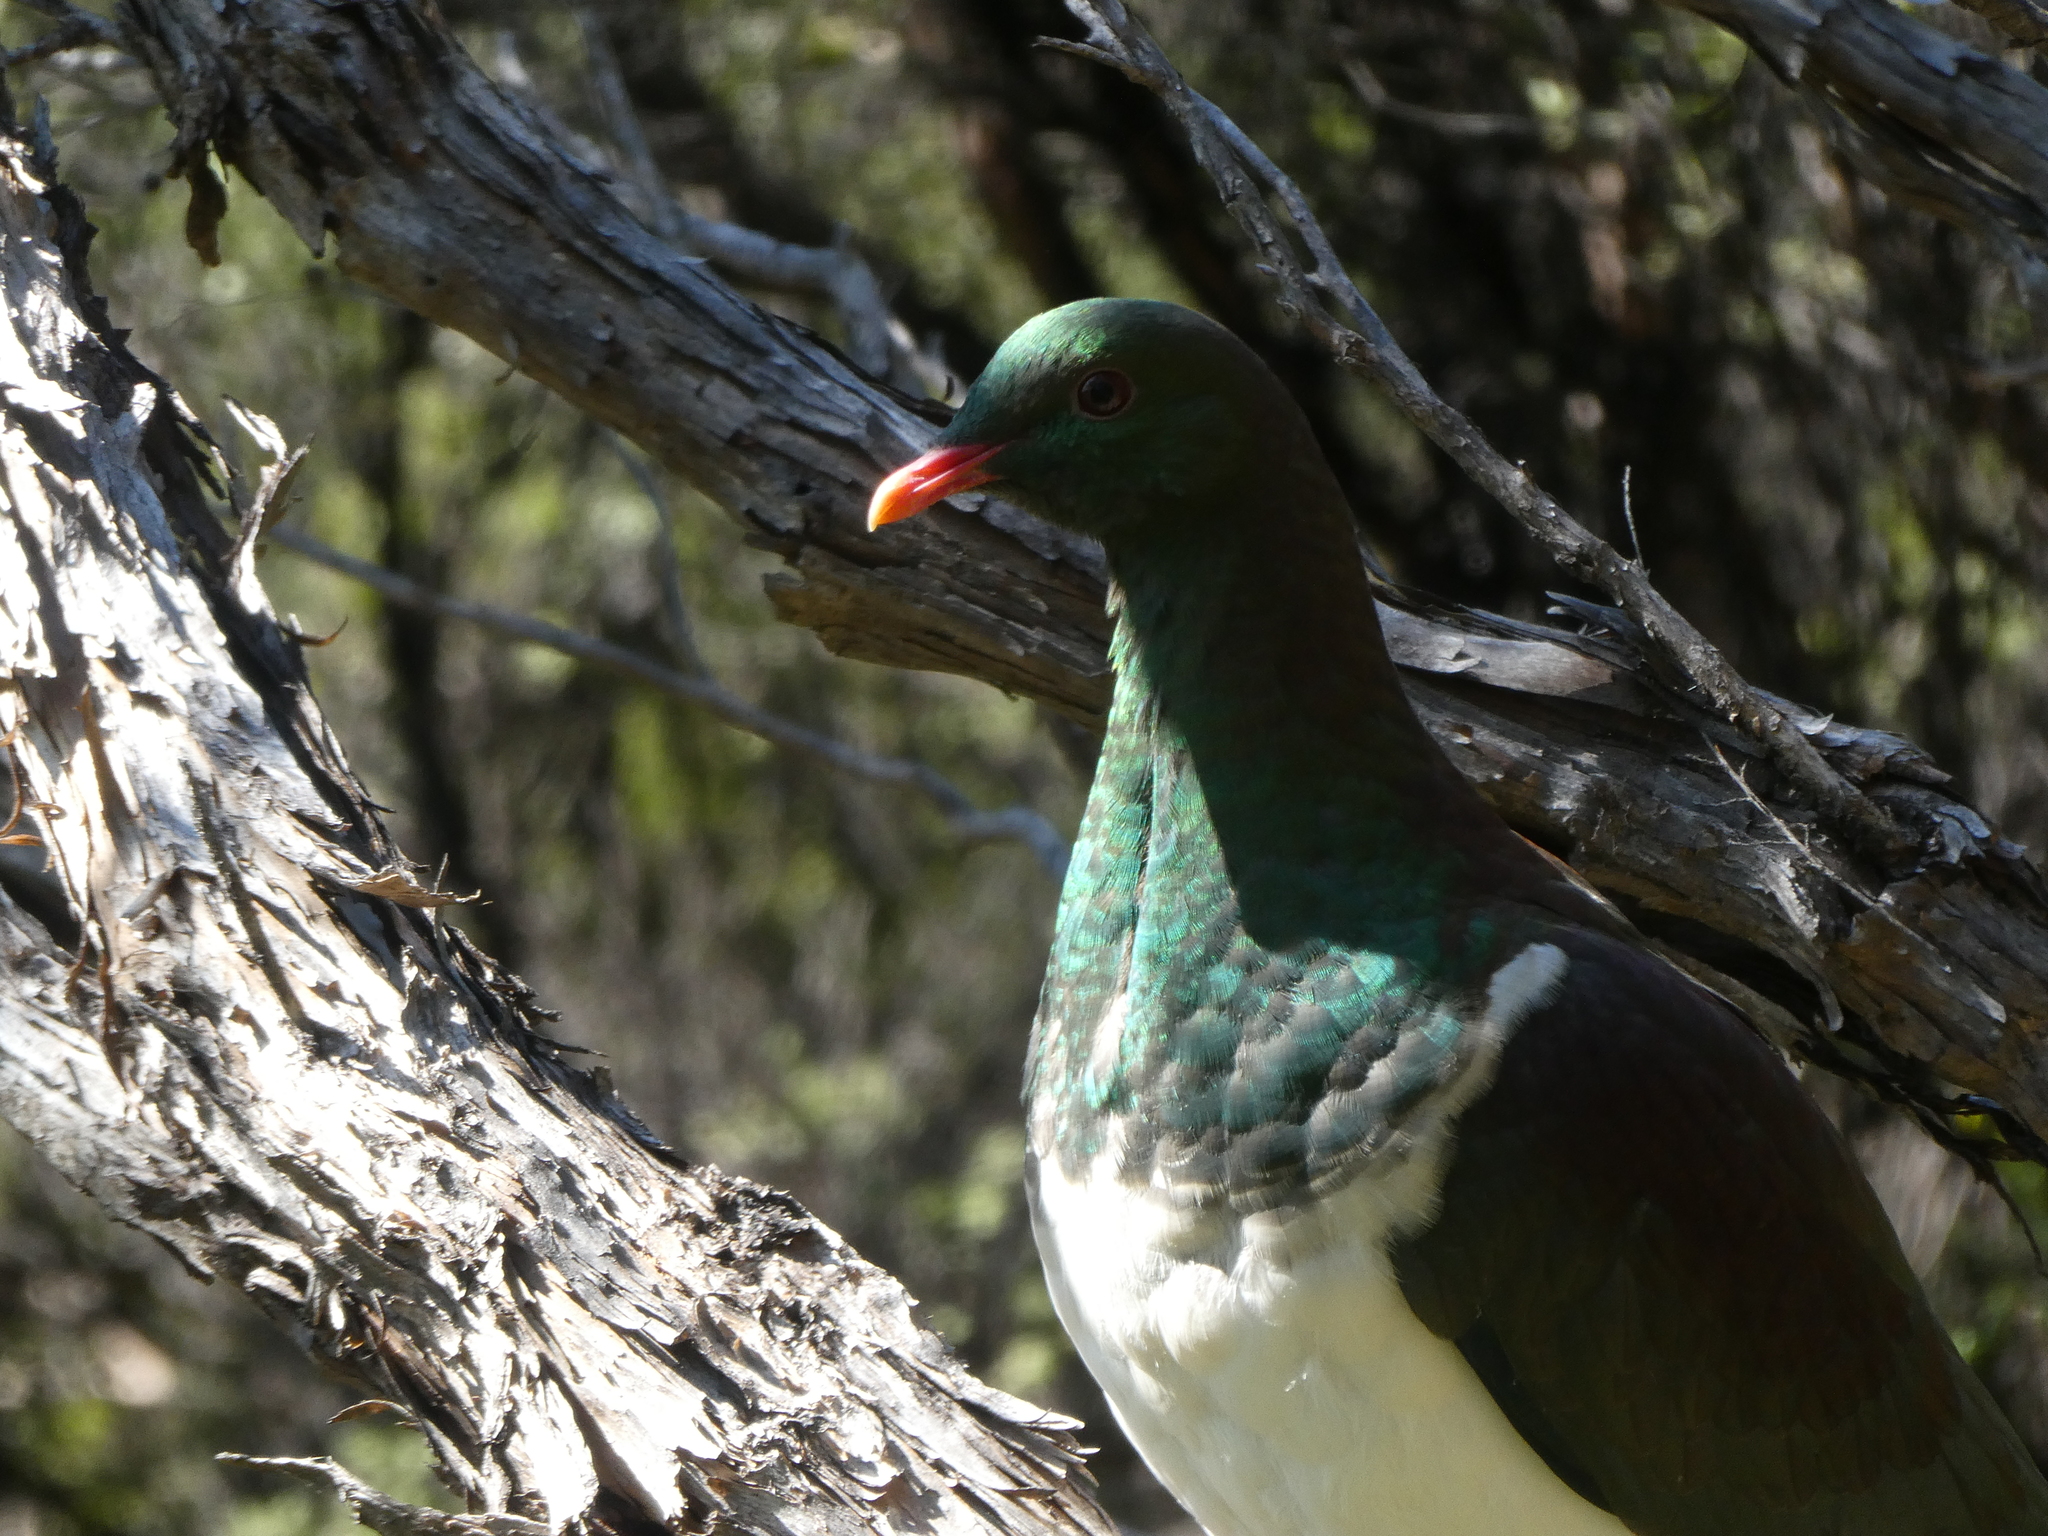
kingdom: Animalia
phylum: Chordata
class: Aves
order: Columbiformes
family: Columbidae
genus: Hemiphaga
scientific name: Hemiphaga novaeseelandiae
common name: New zealand pigeon
